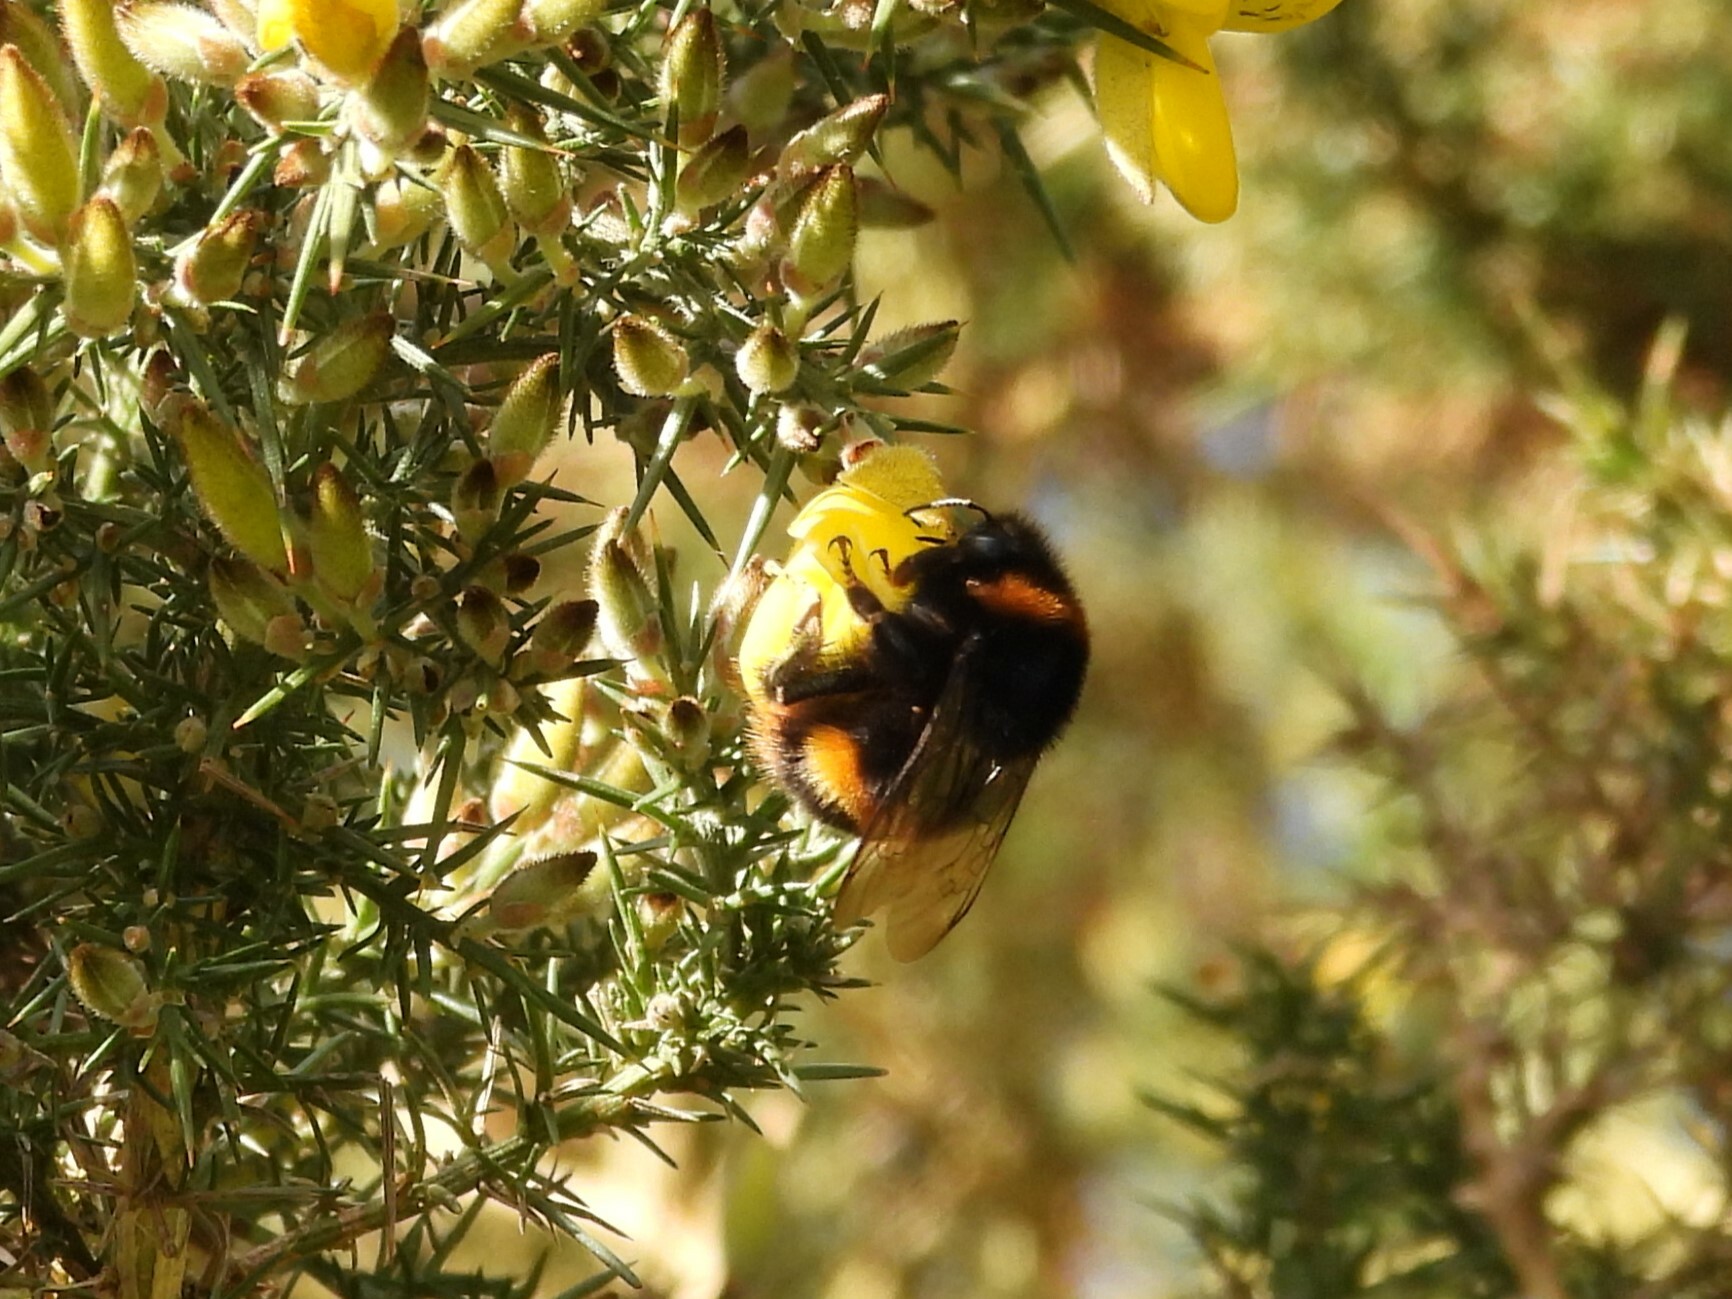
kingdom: Animalia
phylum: Arthropoda
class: Insecta
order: Hymenoptera
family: Apidae
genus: Bombus
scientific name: Bombus terrestris
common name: Buff-tailed bumblebee
